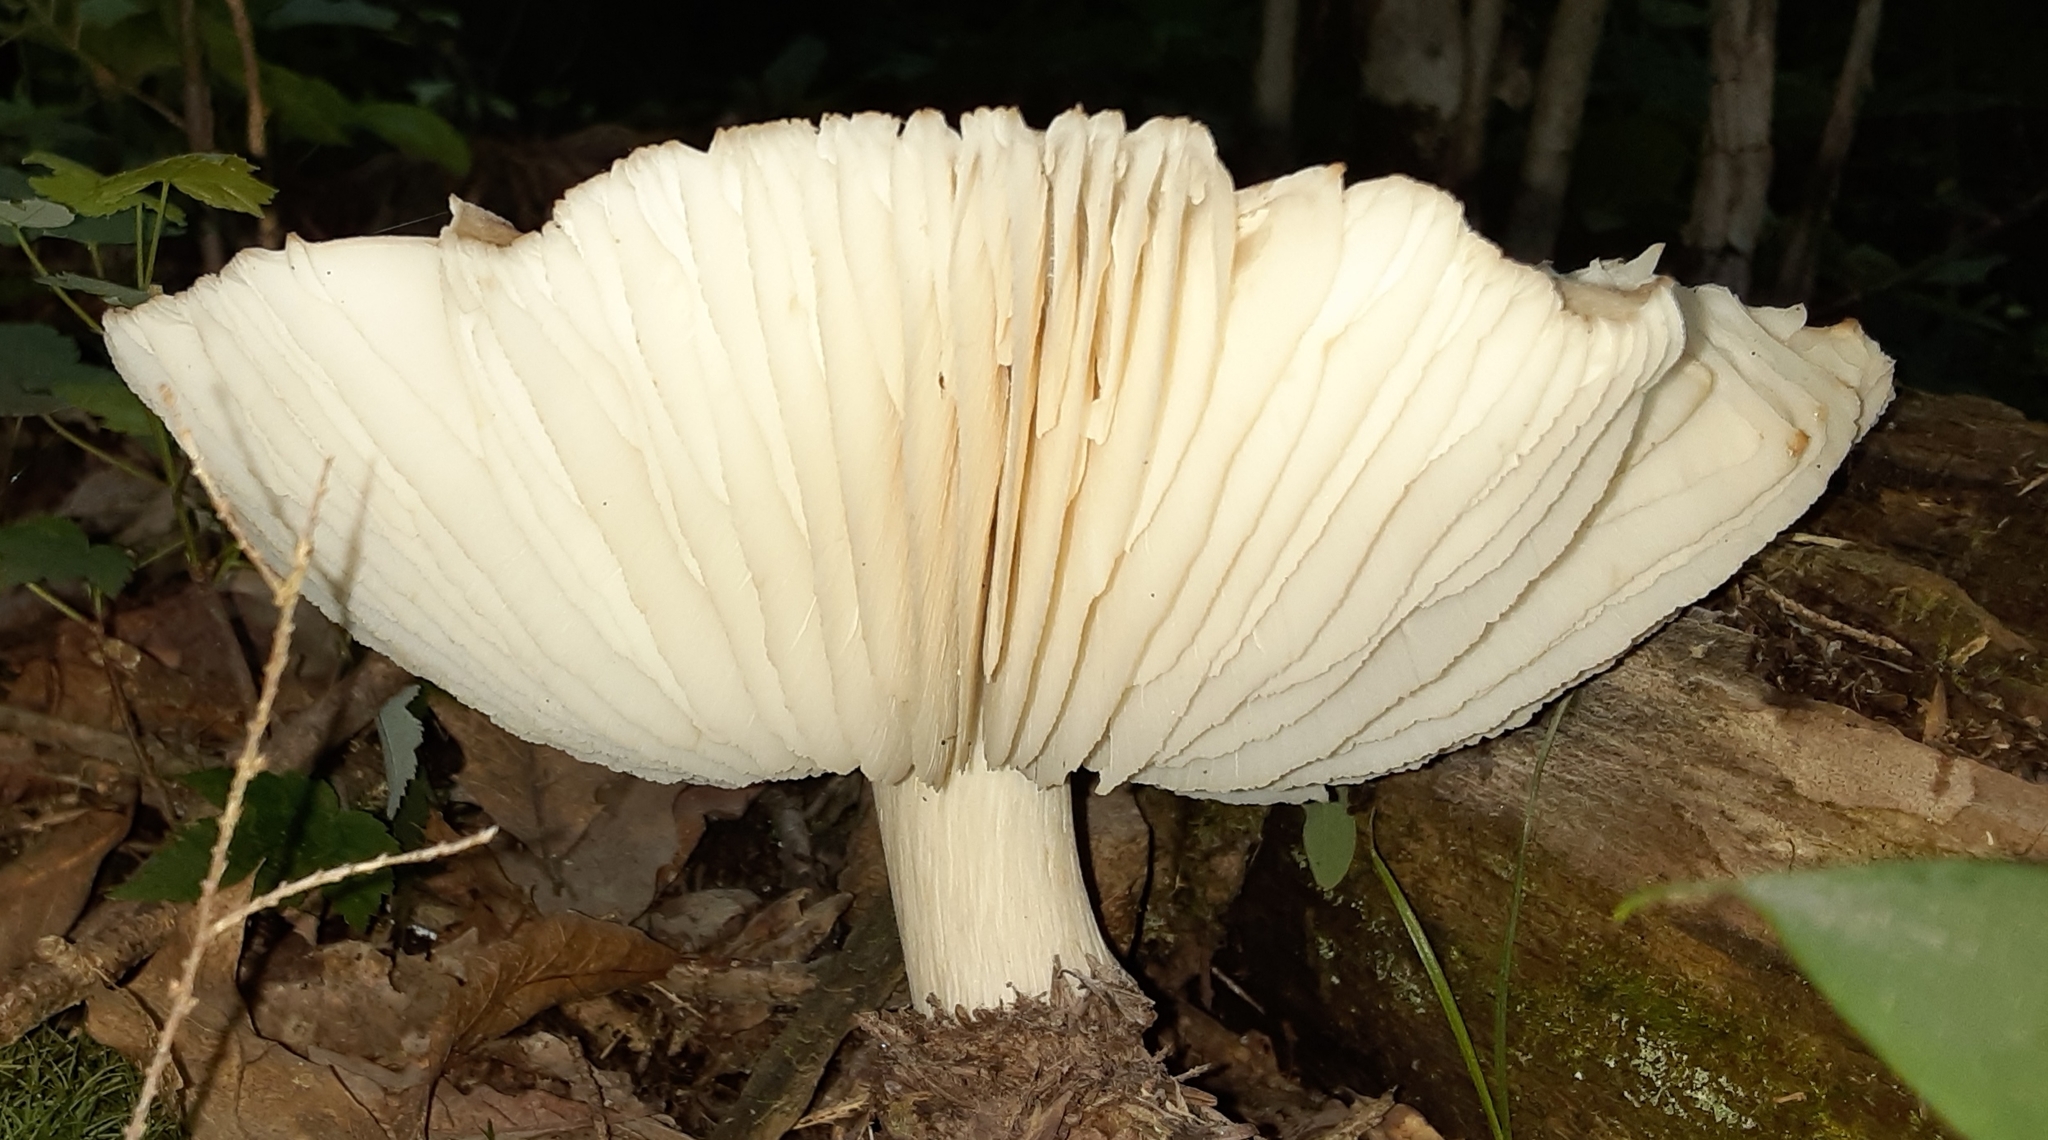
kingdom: Fungi
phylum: Basidiomycota
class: Agaricomycetes
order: Agaricales
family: Tricholomataceae
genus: Megacollybia
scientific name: Megacollybia rodmanii
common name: Eastern american platterful mushroom
